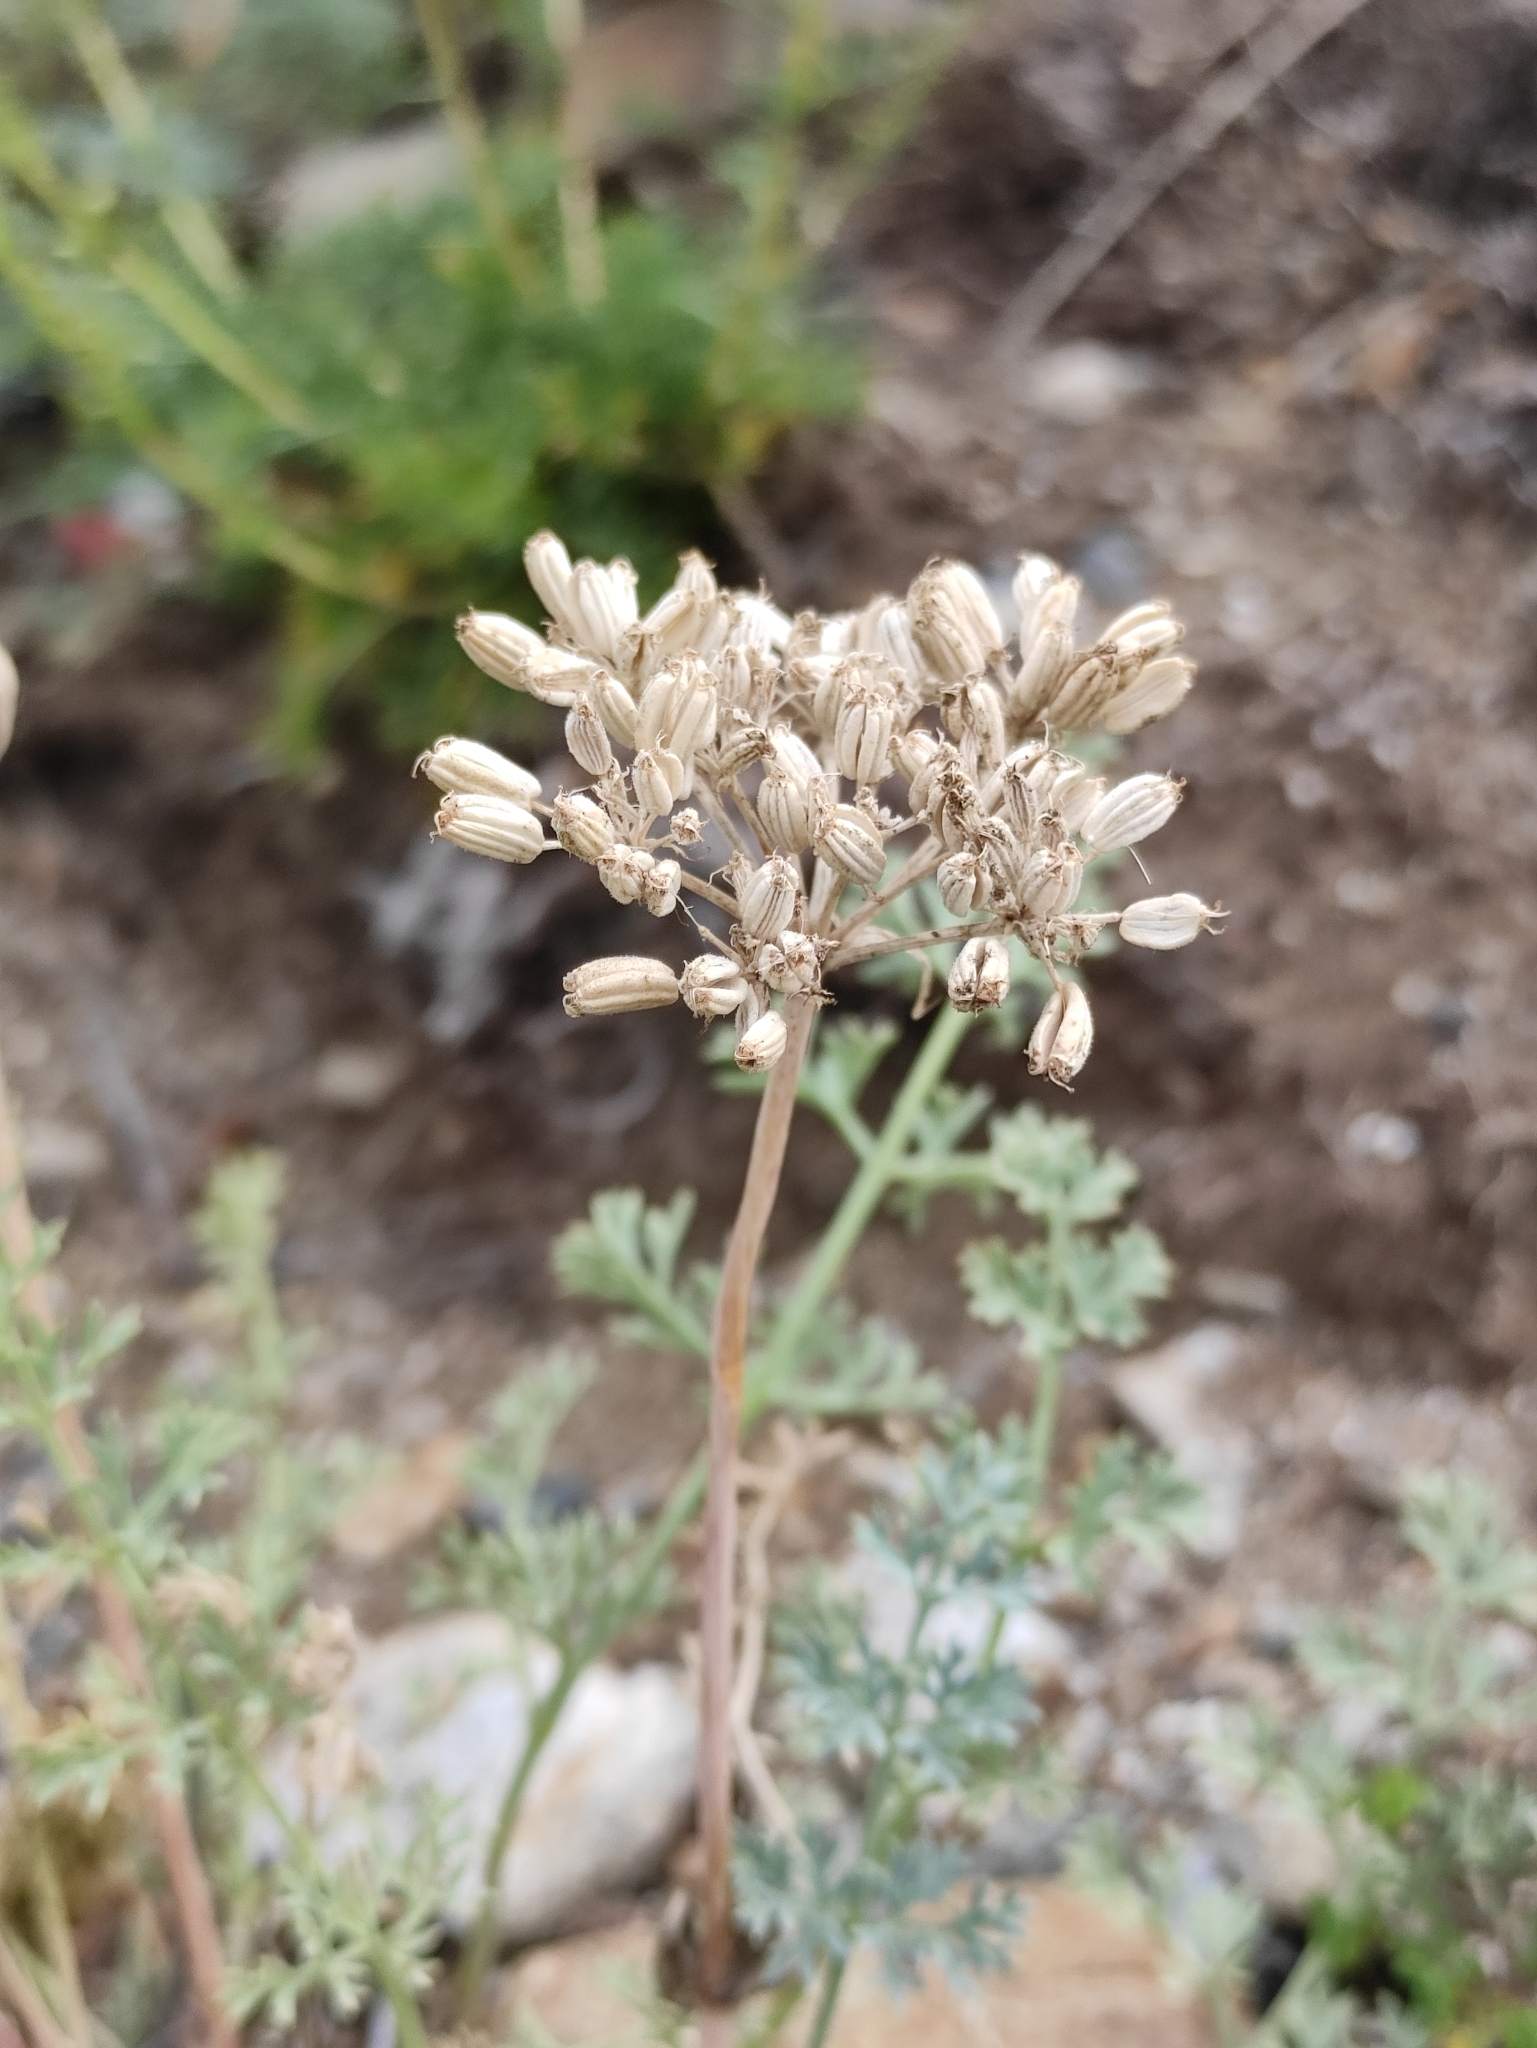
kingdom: Plantae
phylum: Tracheophyta
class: Magnoliopsida
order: Apiales
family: Apiaceae
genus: Phlojodicarpus
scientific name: Phlojodicarpus sibiricus
